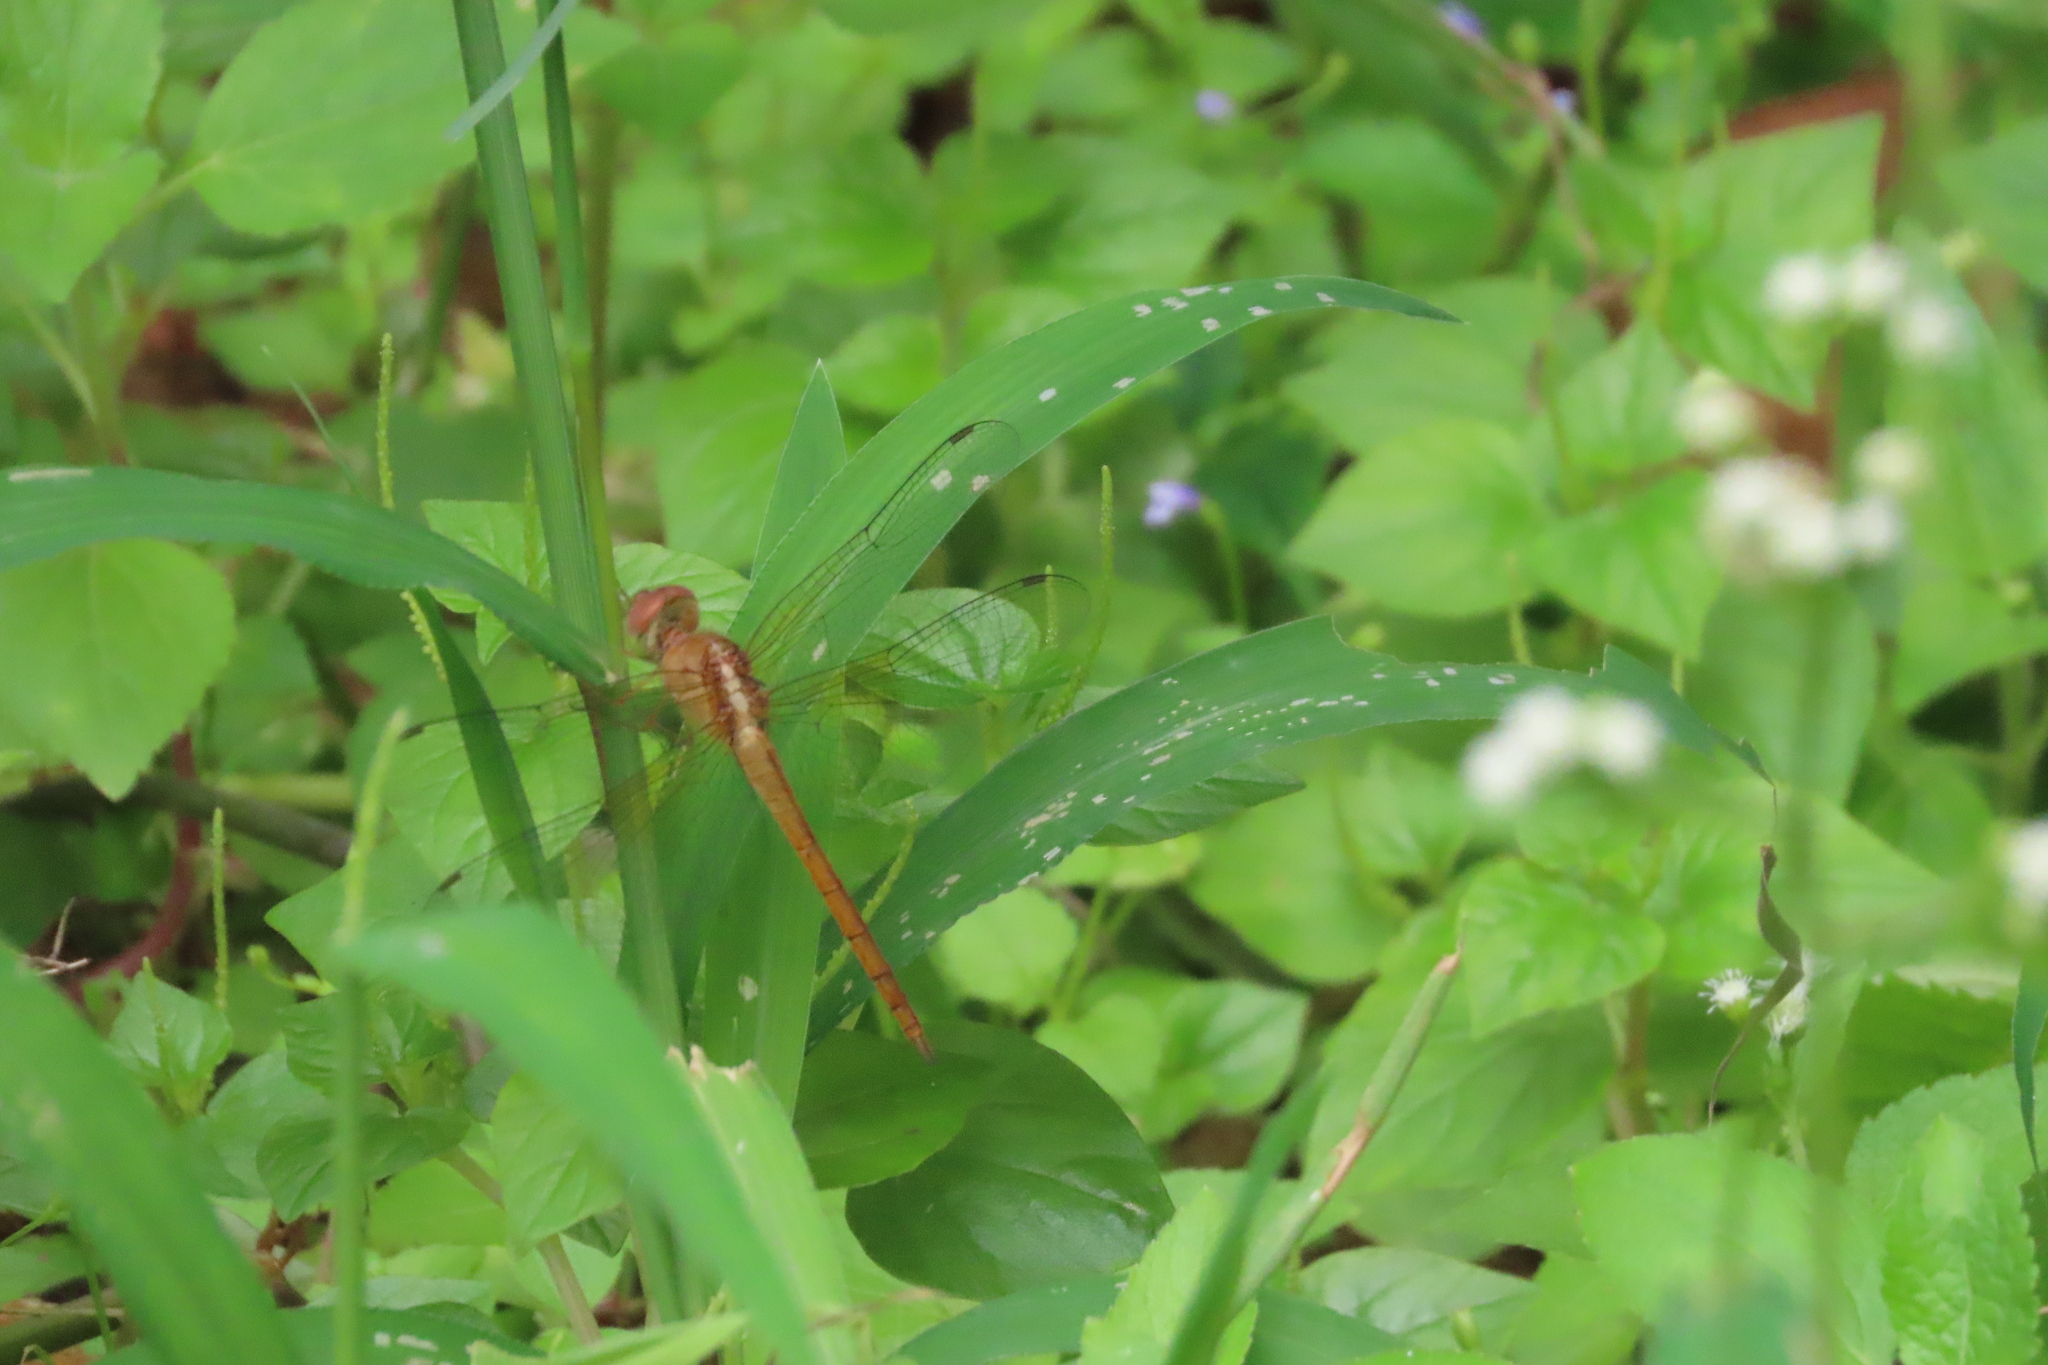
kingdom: Animalia
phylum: Arthropoda
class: Insecta
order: Odonata
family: Libellulidae
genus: Tholymis
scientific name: Tholymis tillarga
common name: Coral-tailed cloud wing
